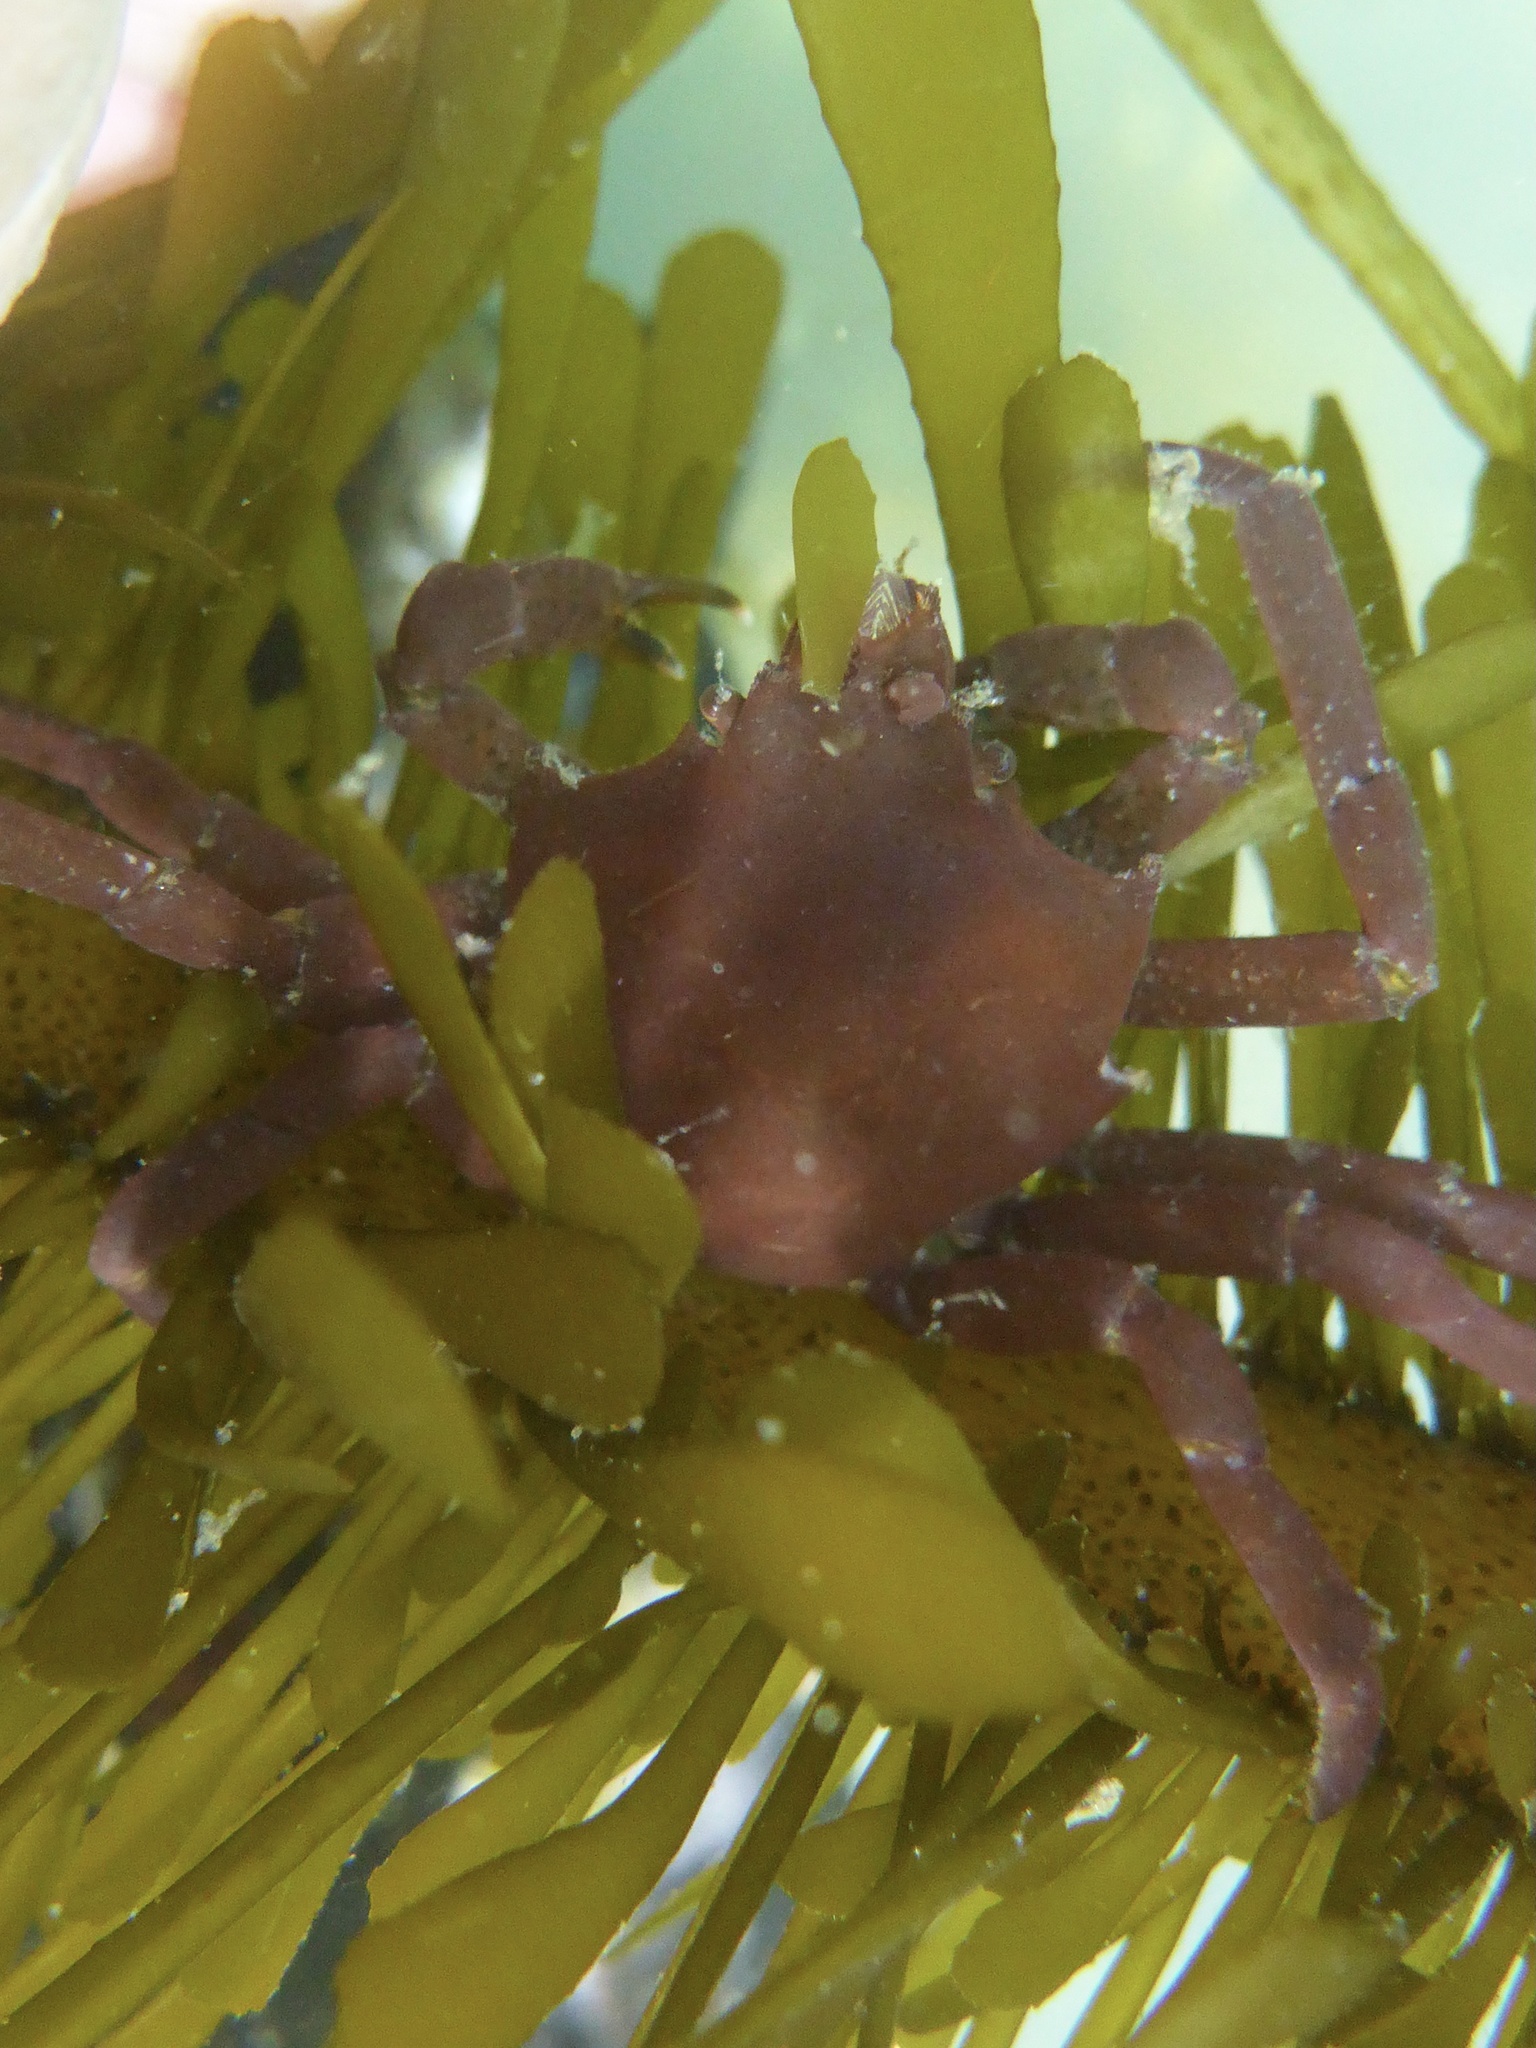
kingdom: Animalia
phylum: Arthropoda
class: Malacostraca
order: Decapoda
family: Epialtidae
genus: Pugettia
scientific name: Pugettia producta
